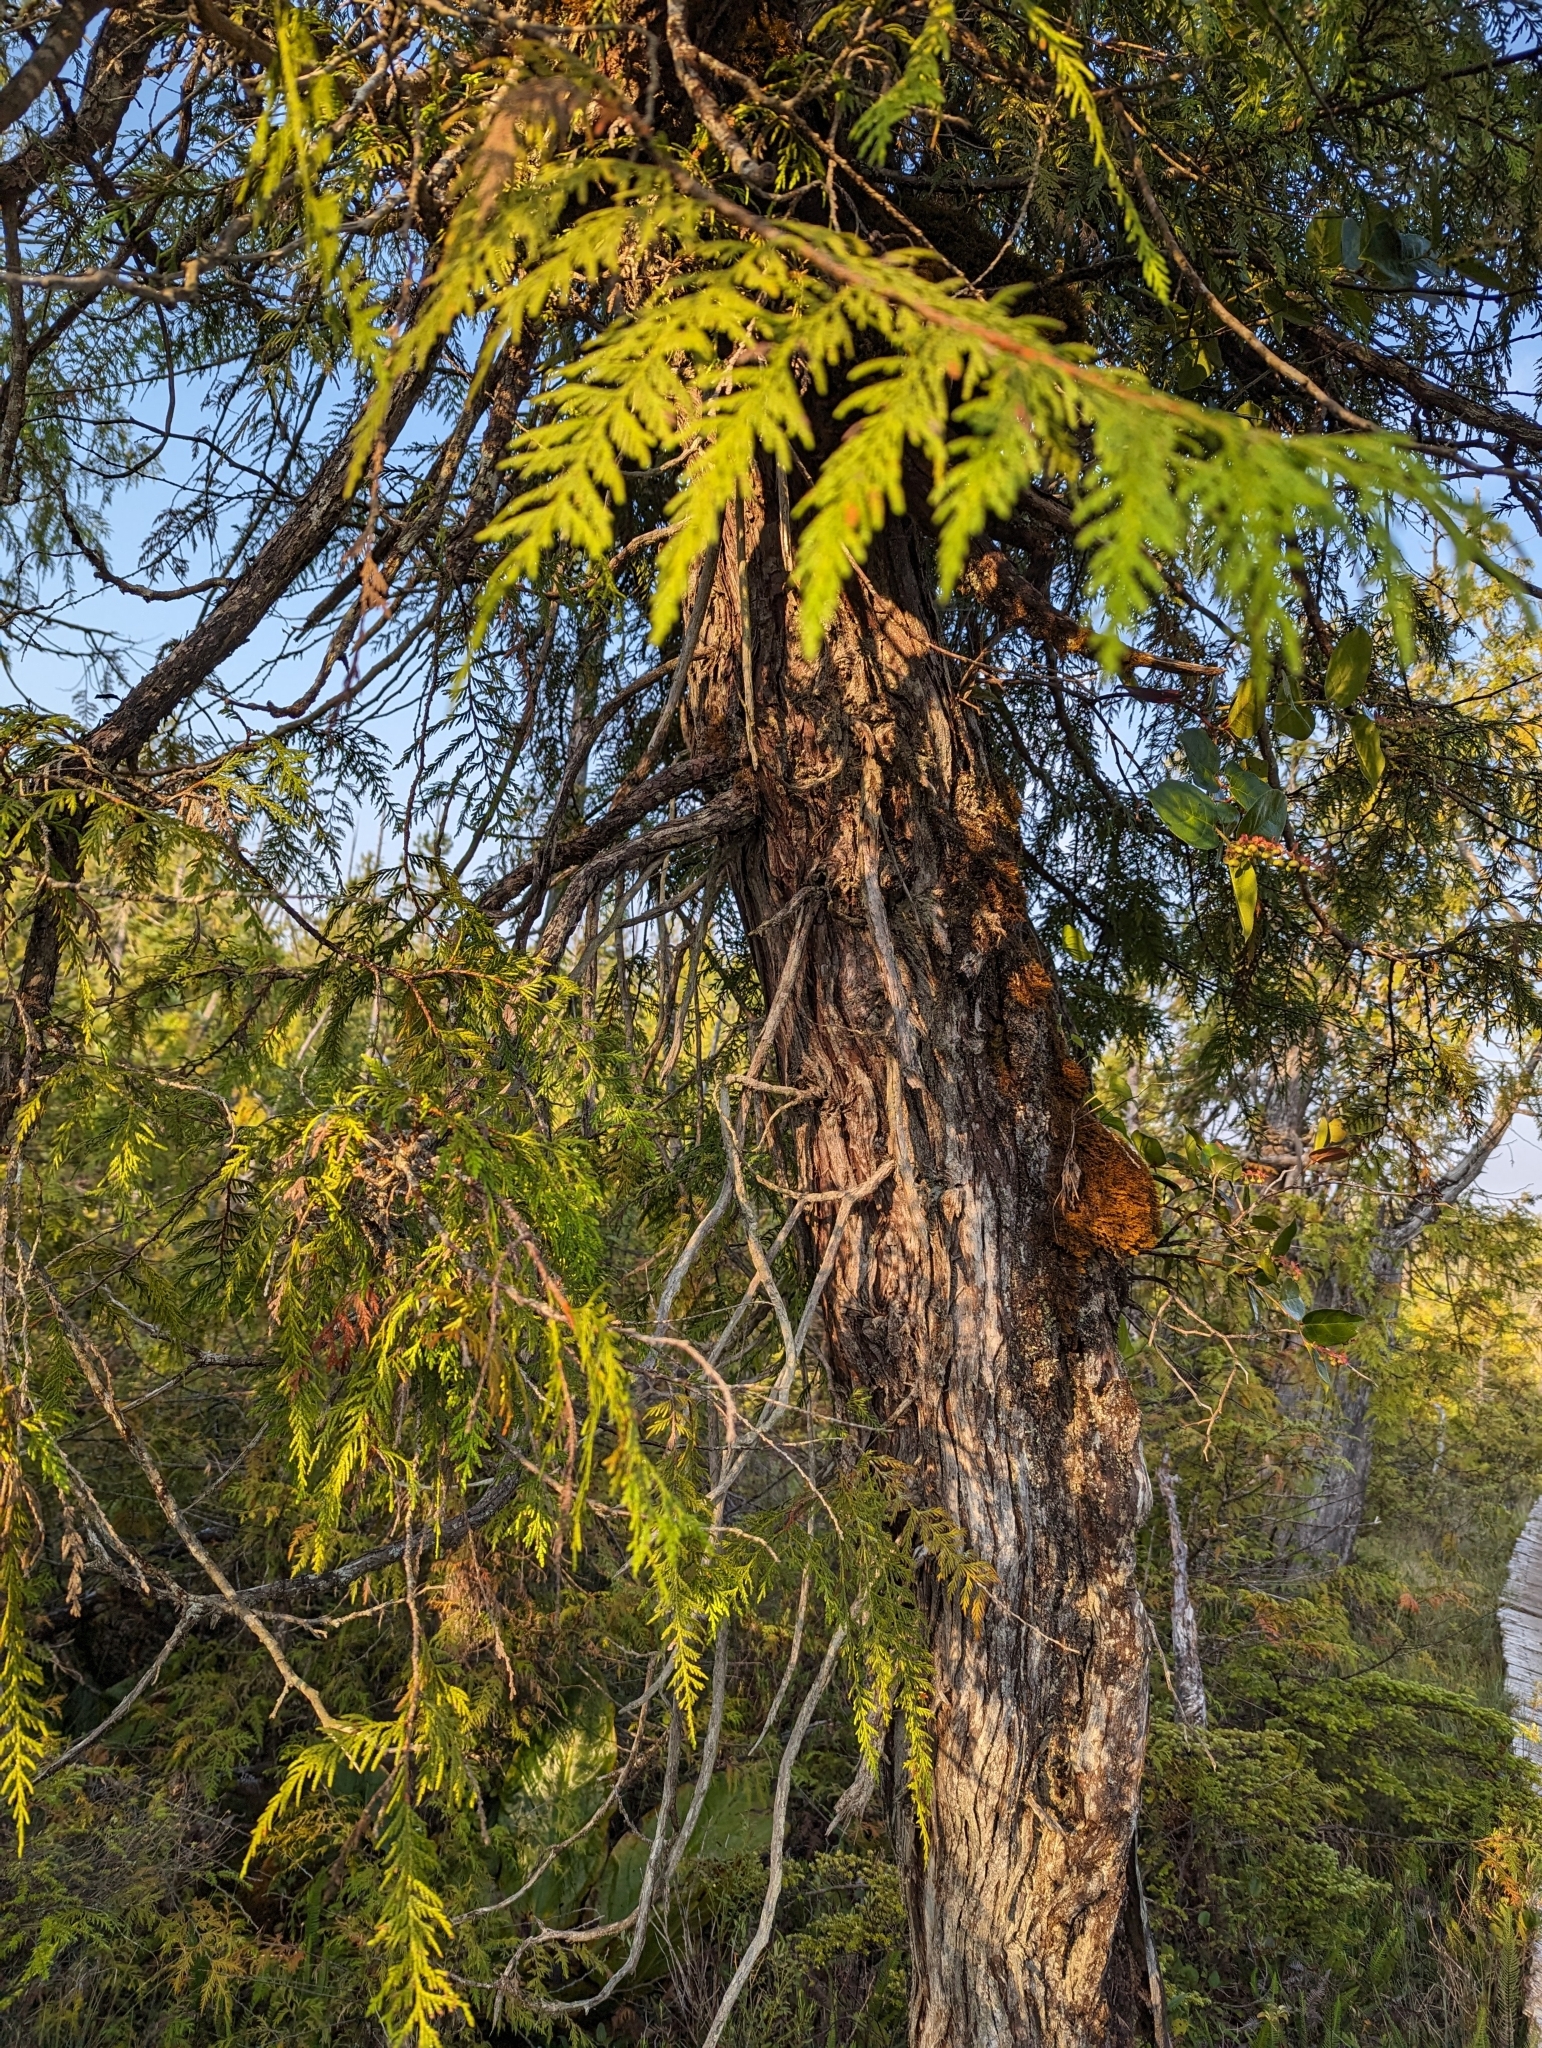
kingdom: Plantae
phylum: Tracheophyta
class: Pinopsida
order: Pinales
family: Cupressaceae
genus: Thuja
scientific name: Thuja plicata
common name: Western red-cedar
